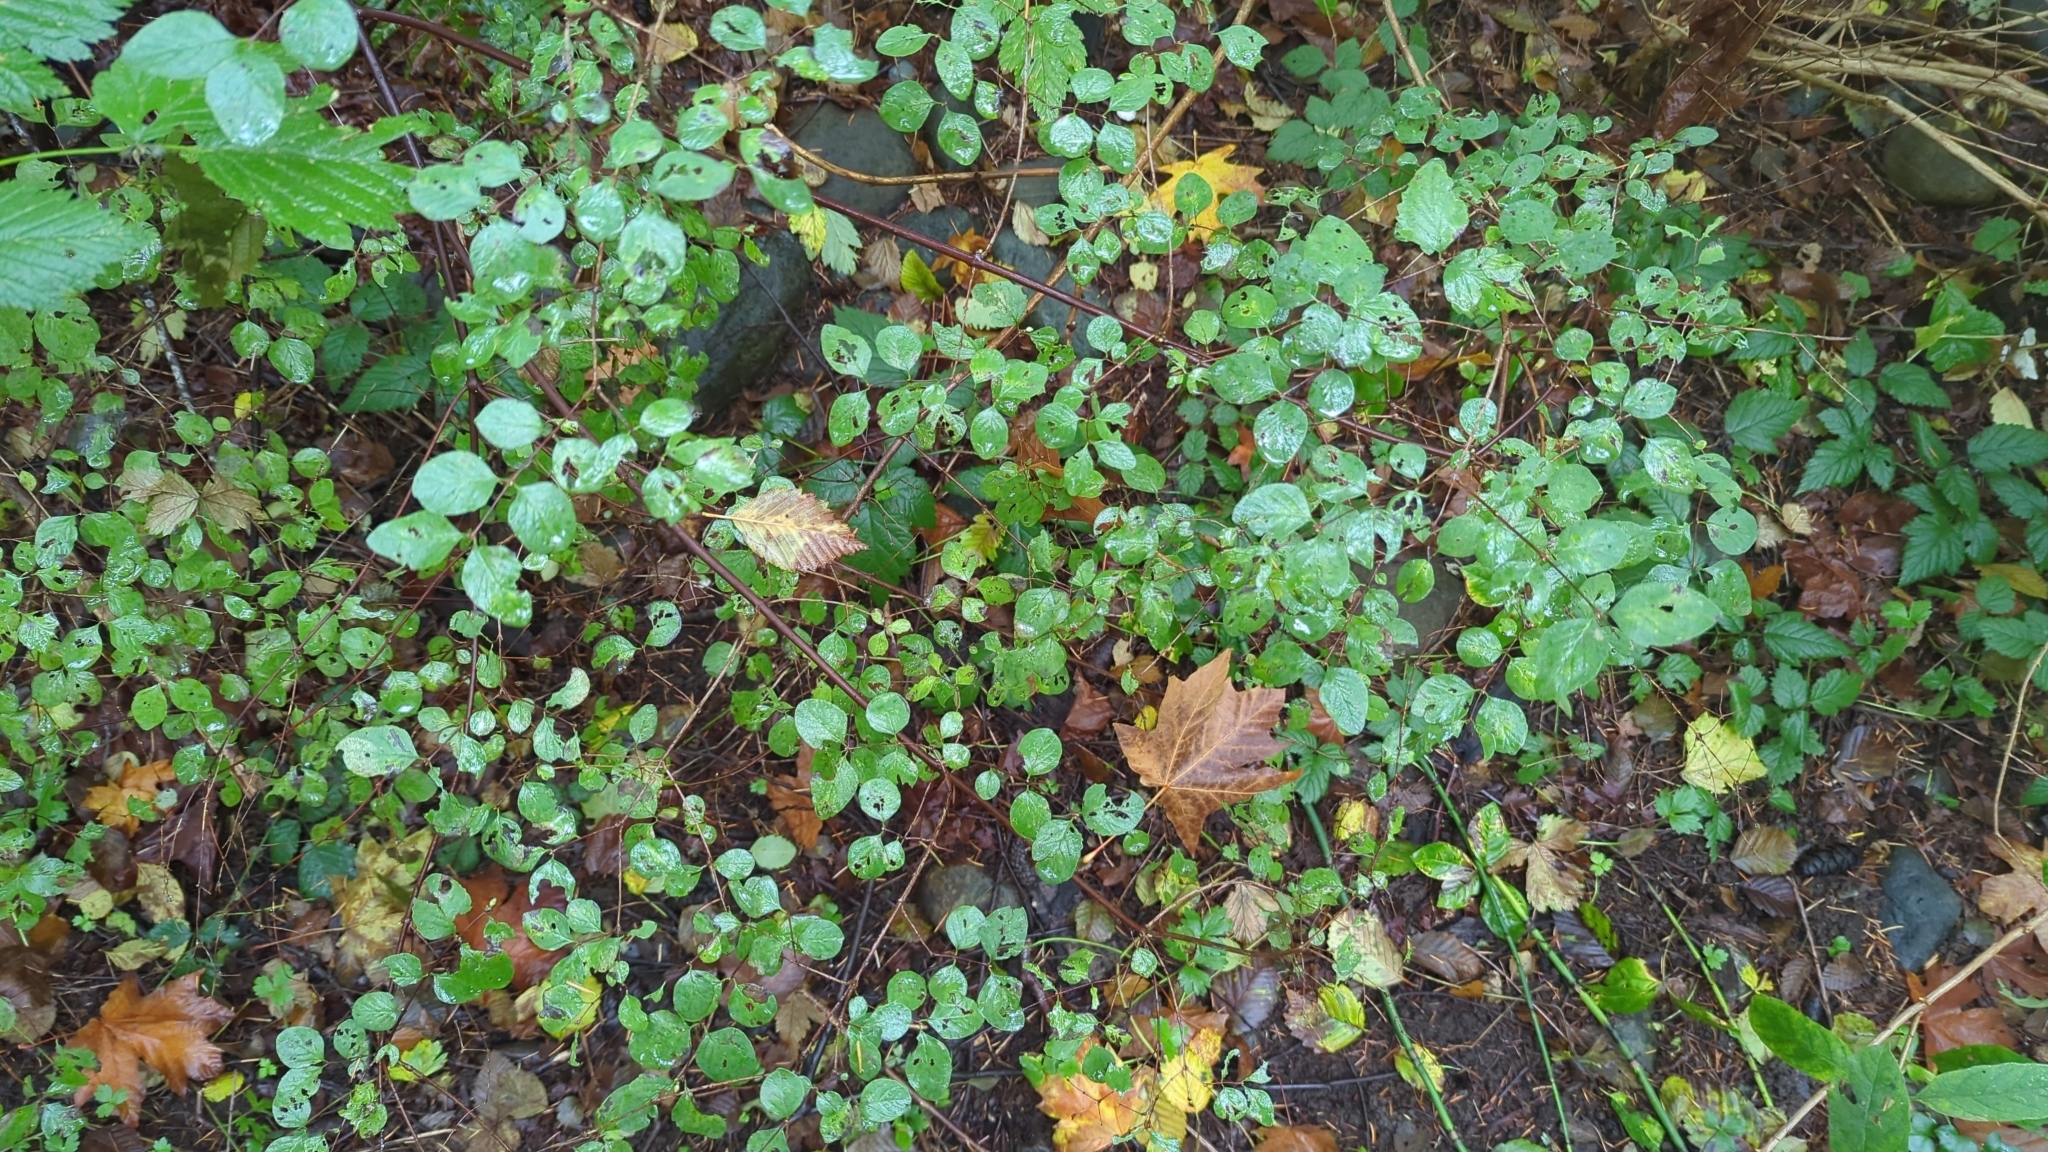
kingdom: Plantae
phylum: Tracheophyta
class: Magnoliopsida
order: Dipsacales
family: Caprifoliaceae
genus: Symphoricarpos
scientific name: Symphoricarpos albus
